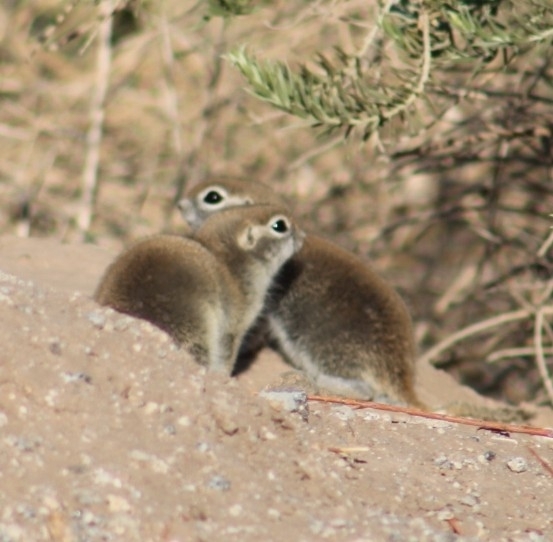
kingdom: Animalia
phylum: Chordata
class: Mammalia
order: Rodentia
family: Sciuridae
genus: Xerospermophilus
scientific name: Xerospermophilus tereticaudus
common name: Round-tailed ground squirrel
